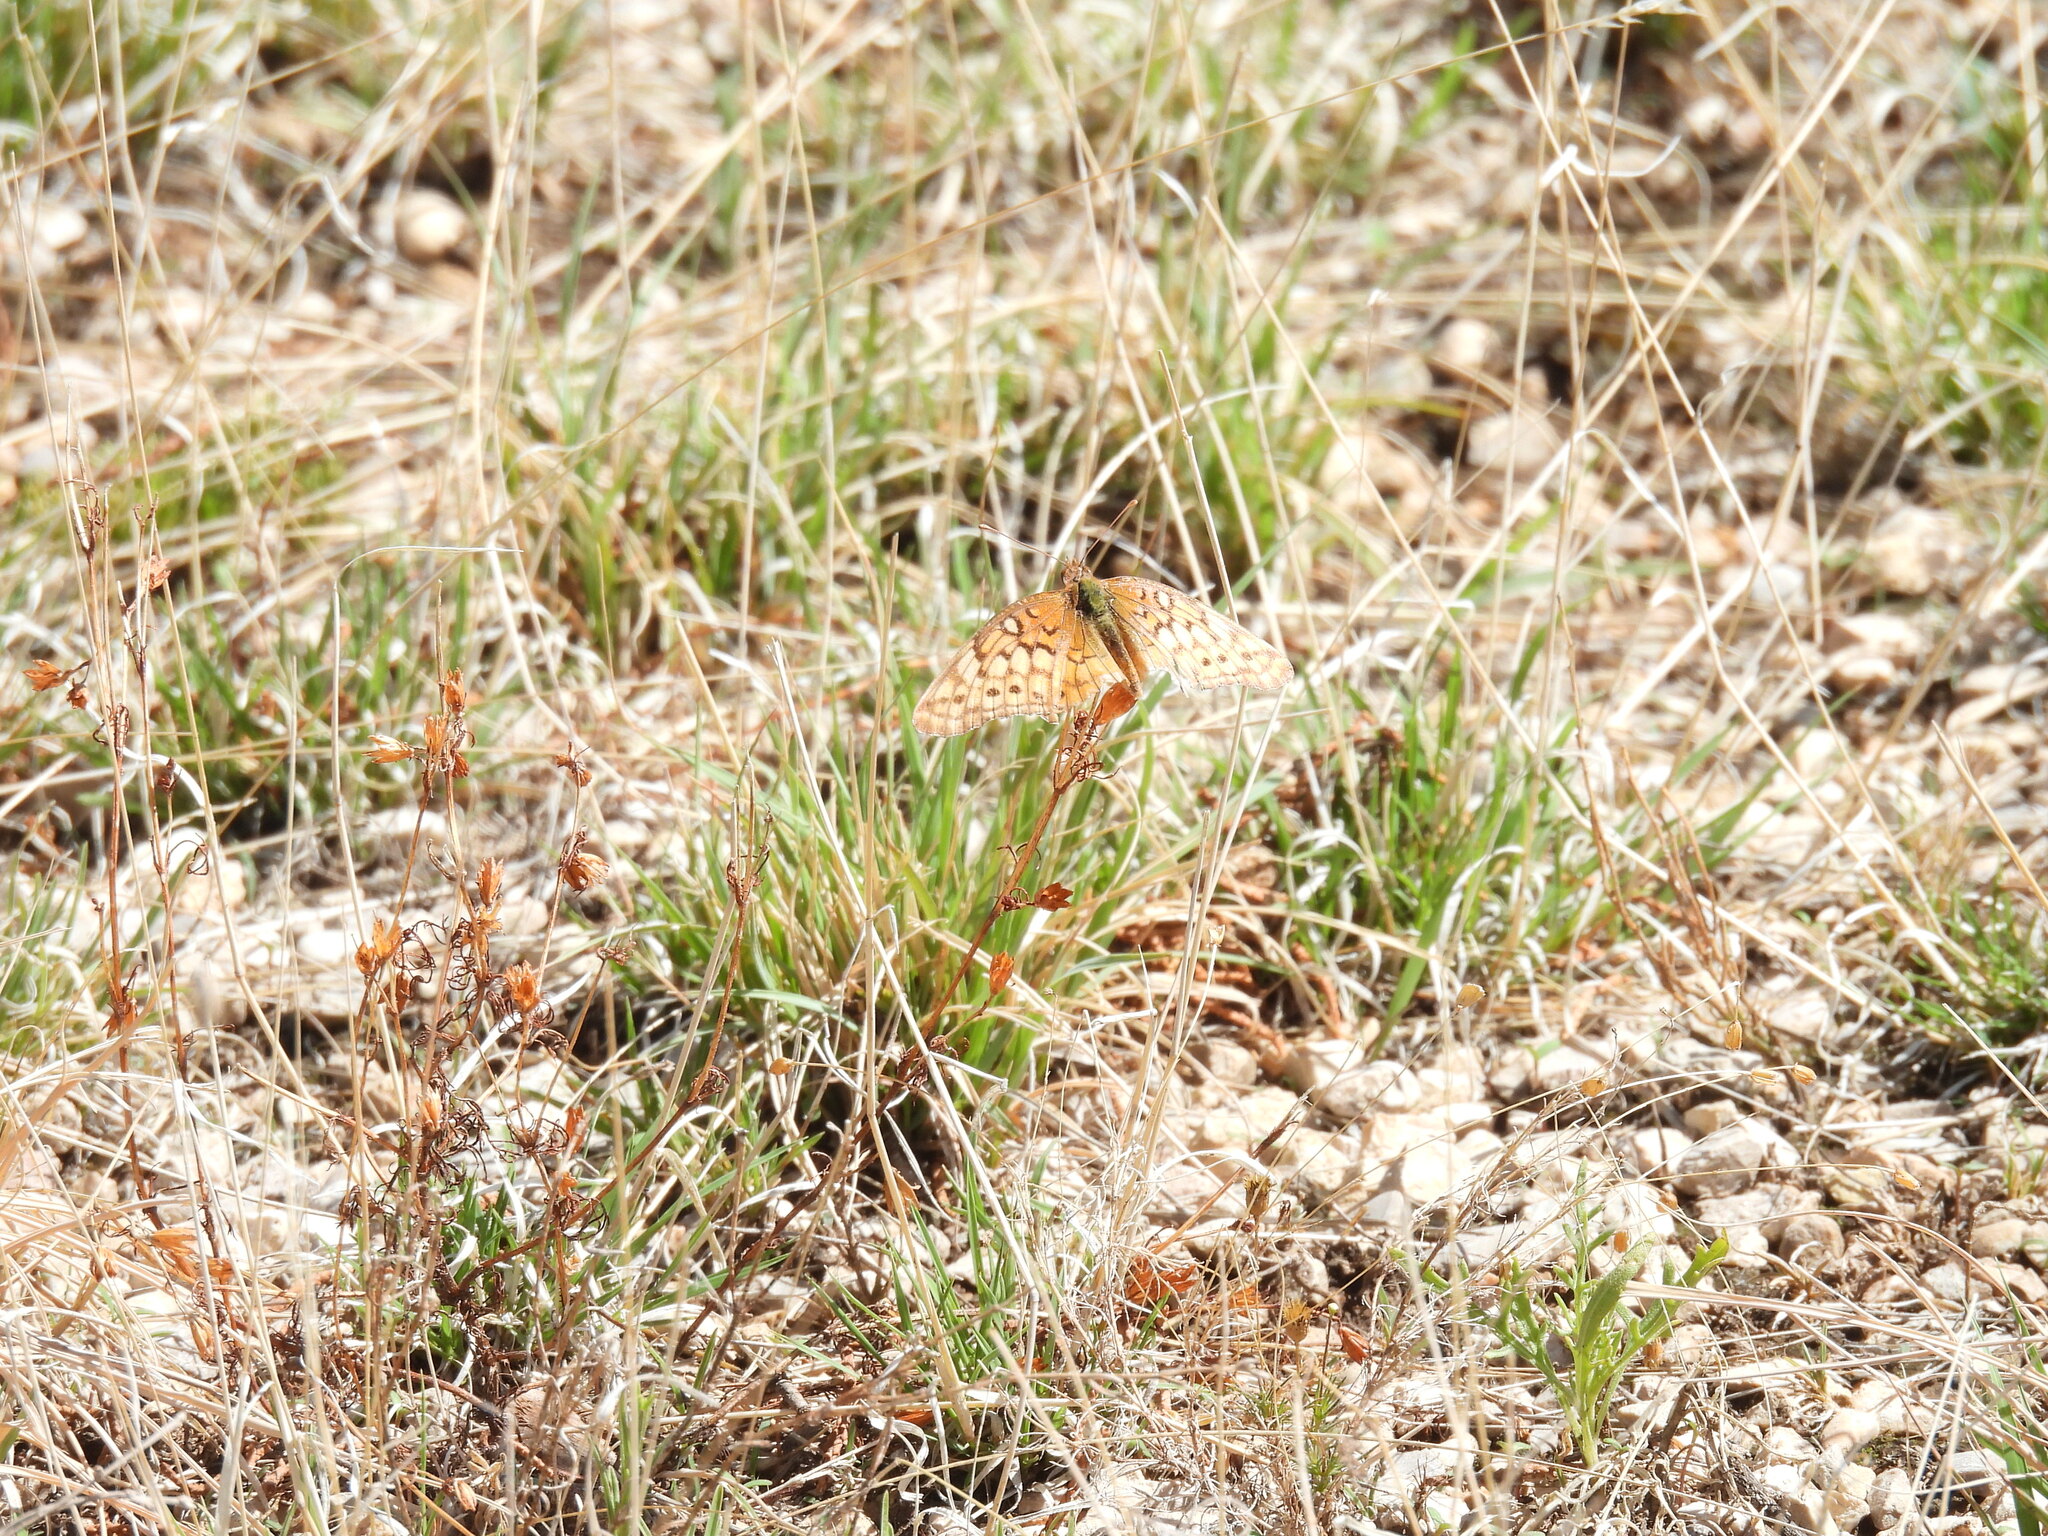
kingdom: Animalia
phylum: Arthropoda
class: Insecta
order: Lepidoptera
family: Nymphalidae
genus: Euptoieta
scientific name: Euptoieta claudia
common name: Variegated fritillary
